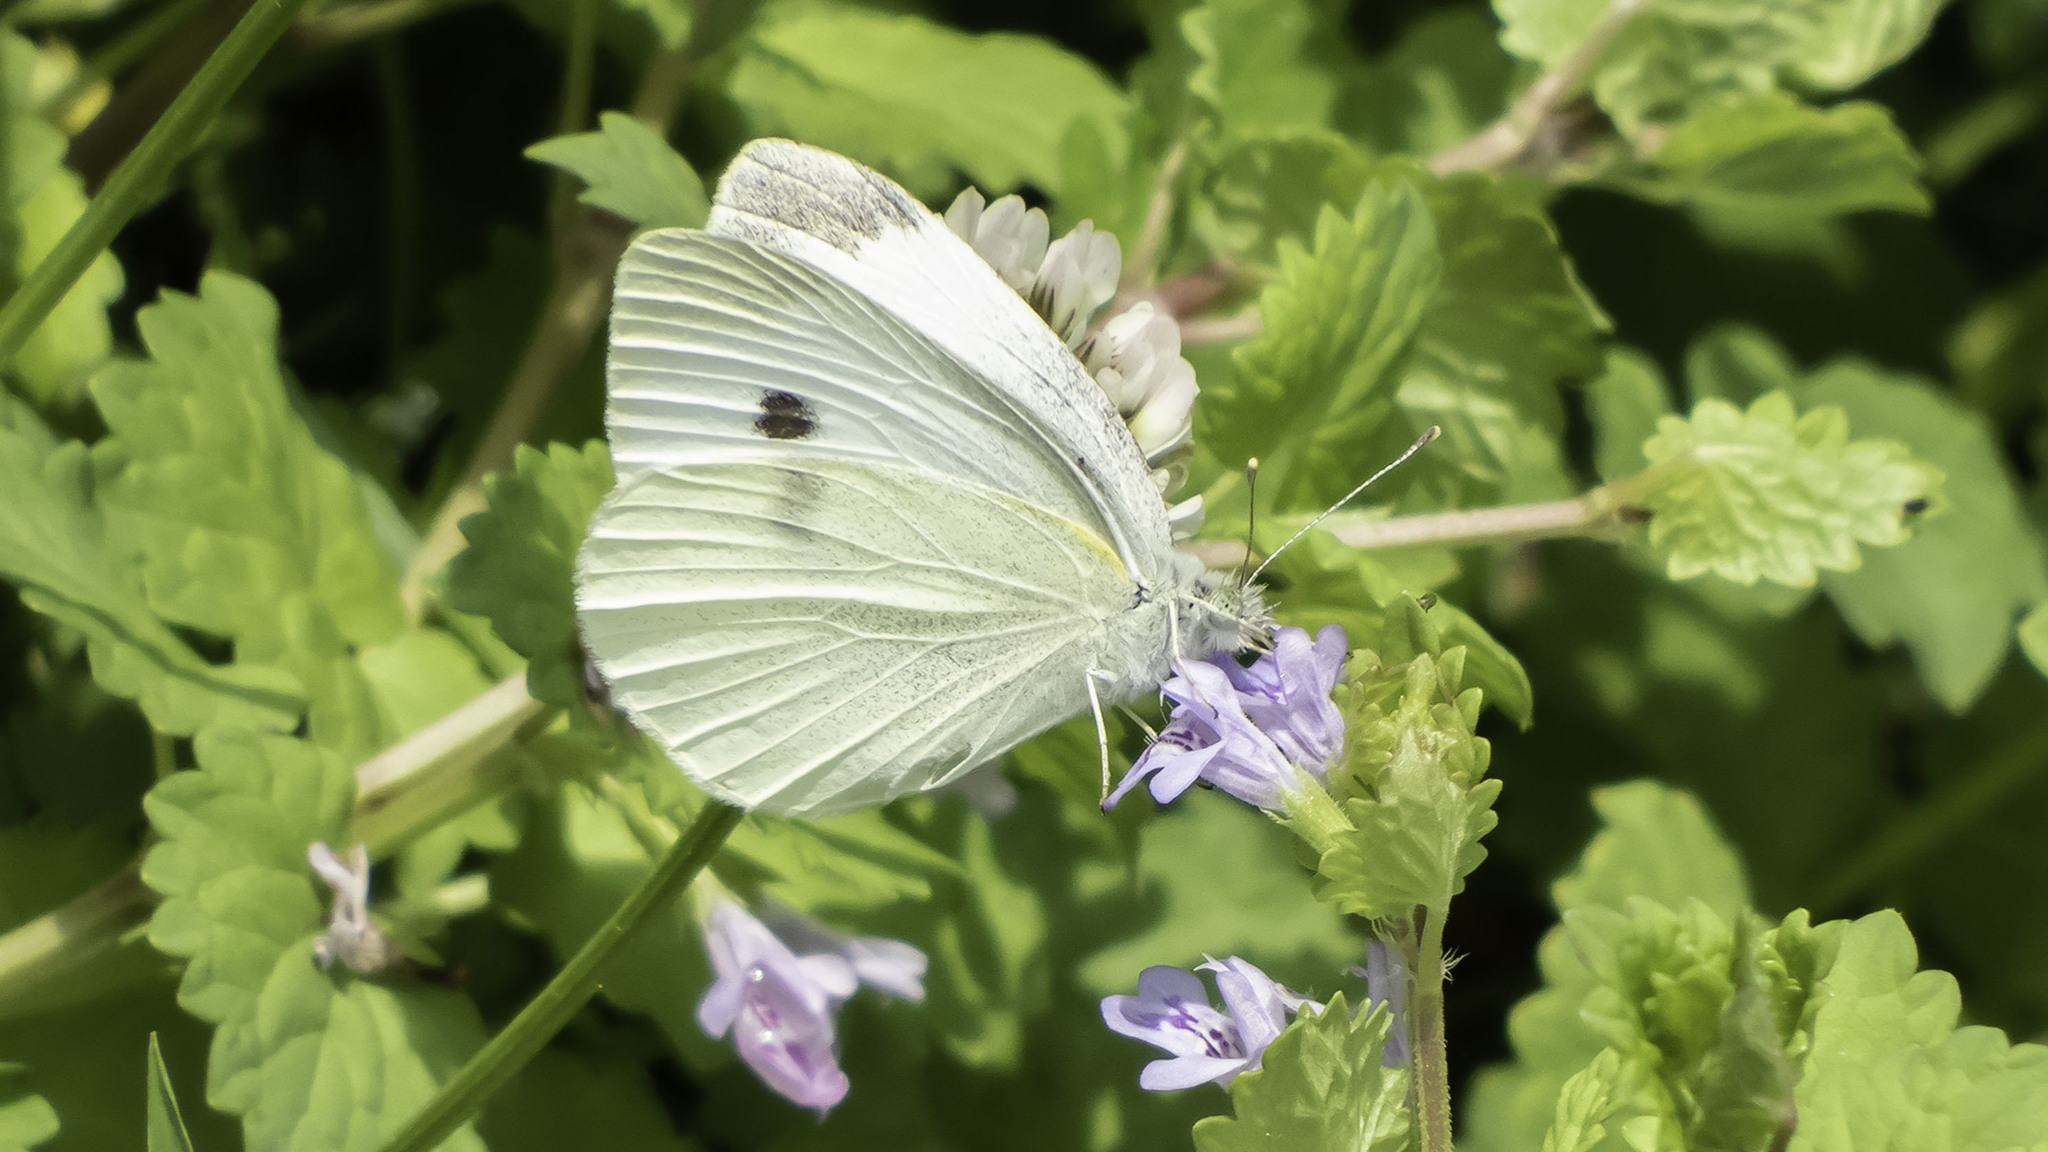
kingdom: Animalia
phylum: Arthropoda
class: Insecta
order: Lepidoptera
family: Pieridae
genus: Pieris
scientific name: Pieris rapae
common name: Small white
